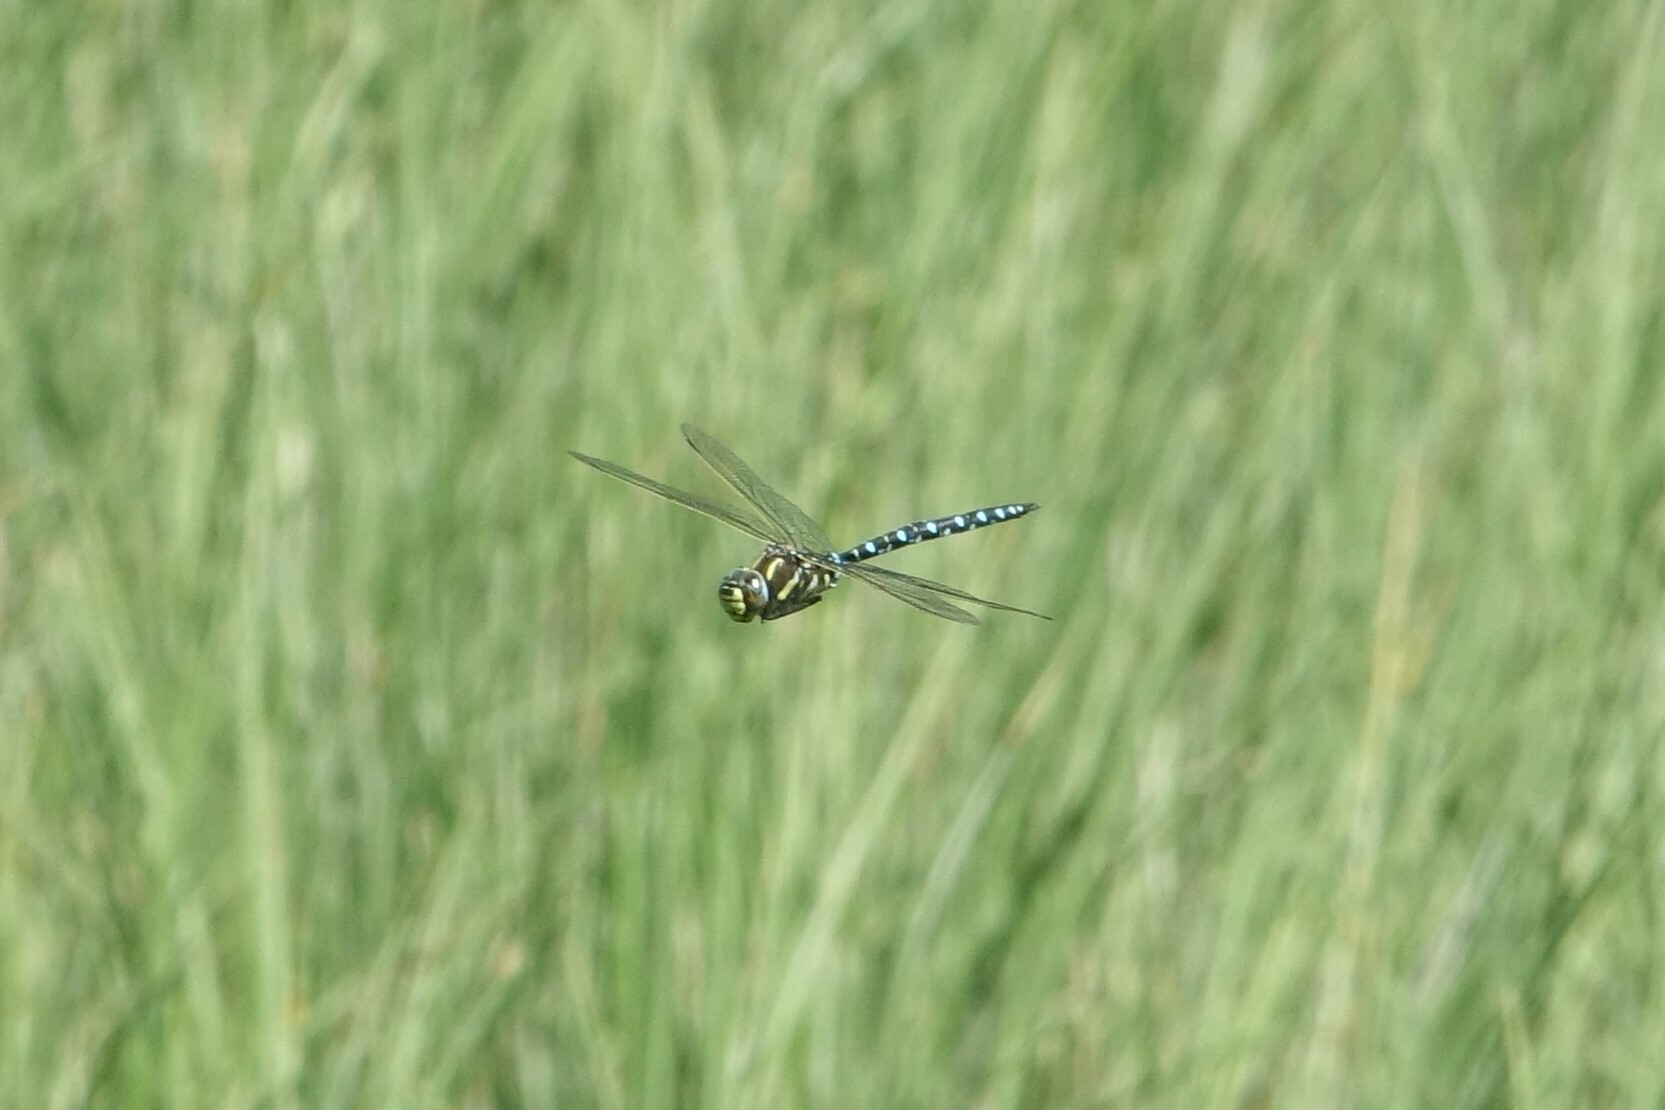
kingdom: Animalia
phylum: Arthropoda
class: Insecta
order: Odonata
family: Aeshnidae
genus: Aeshna
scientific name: Aeshna juncea
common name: Moorland hawker
